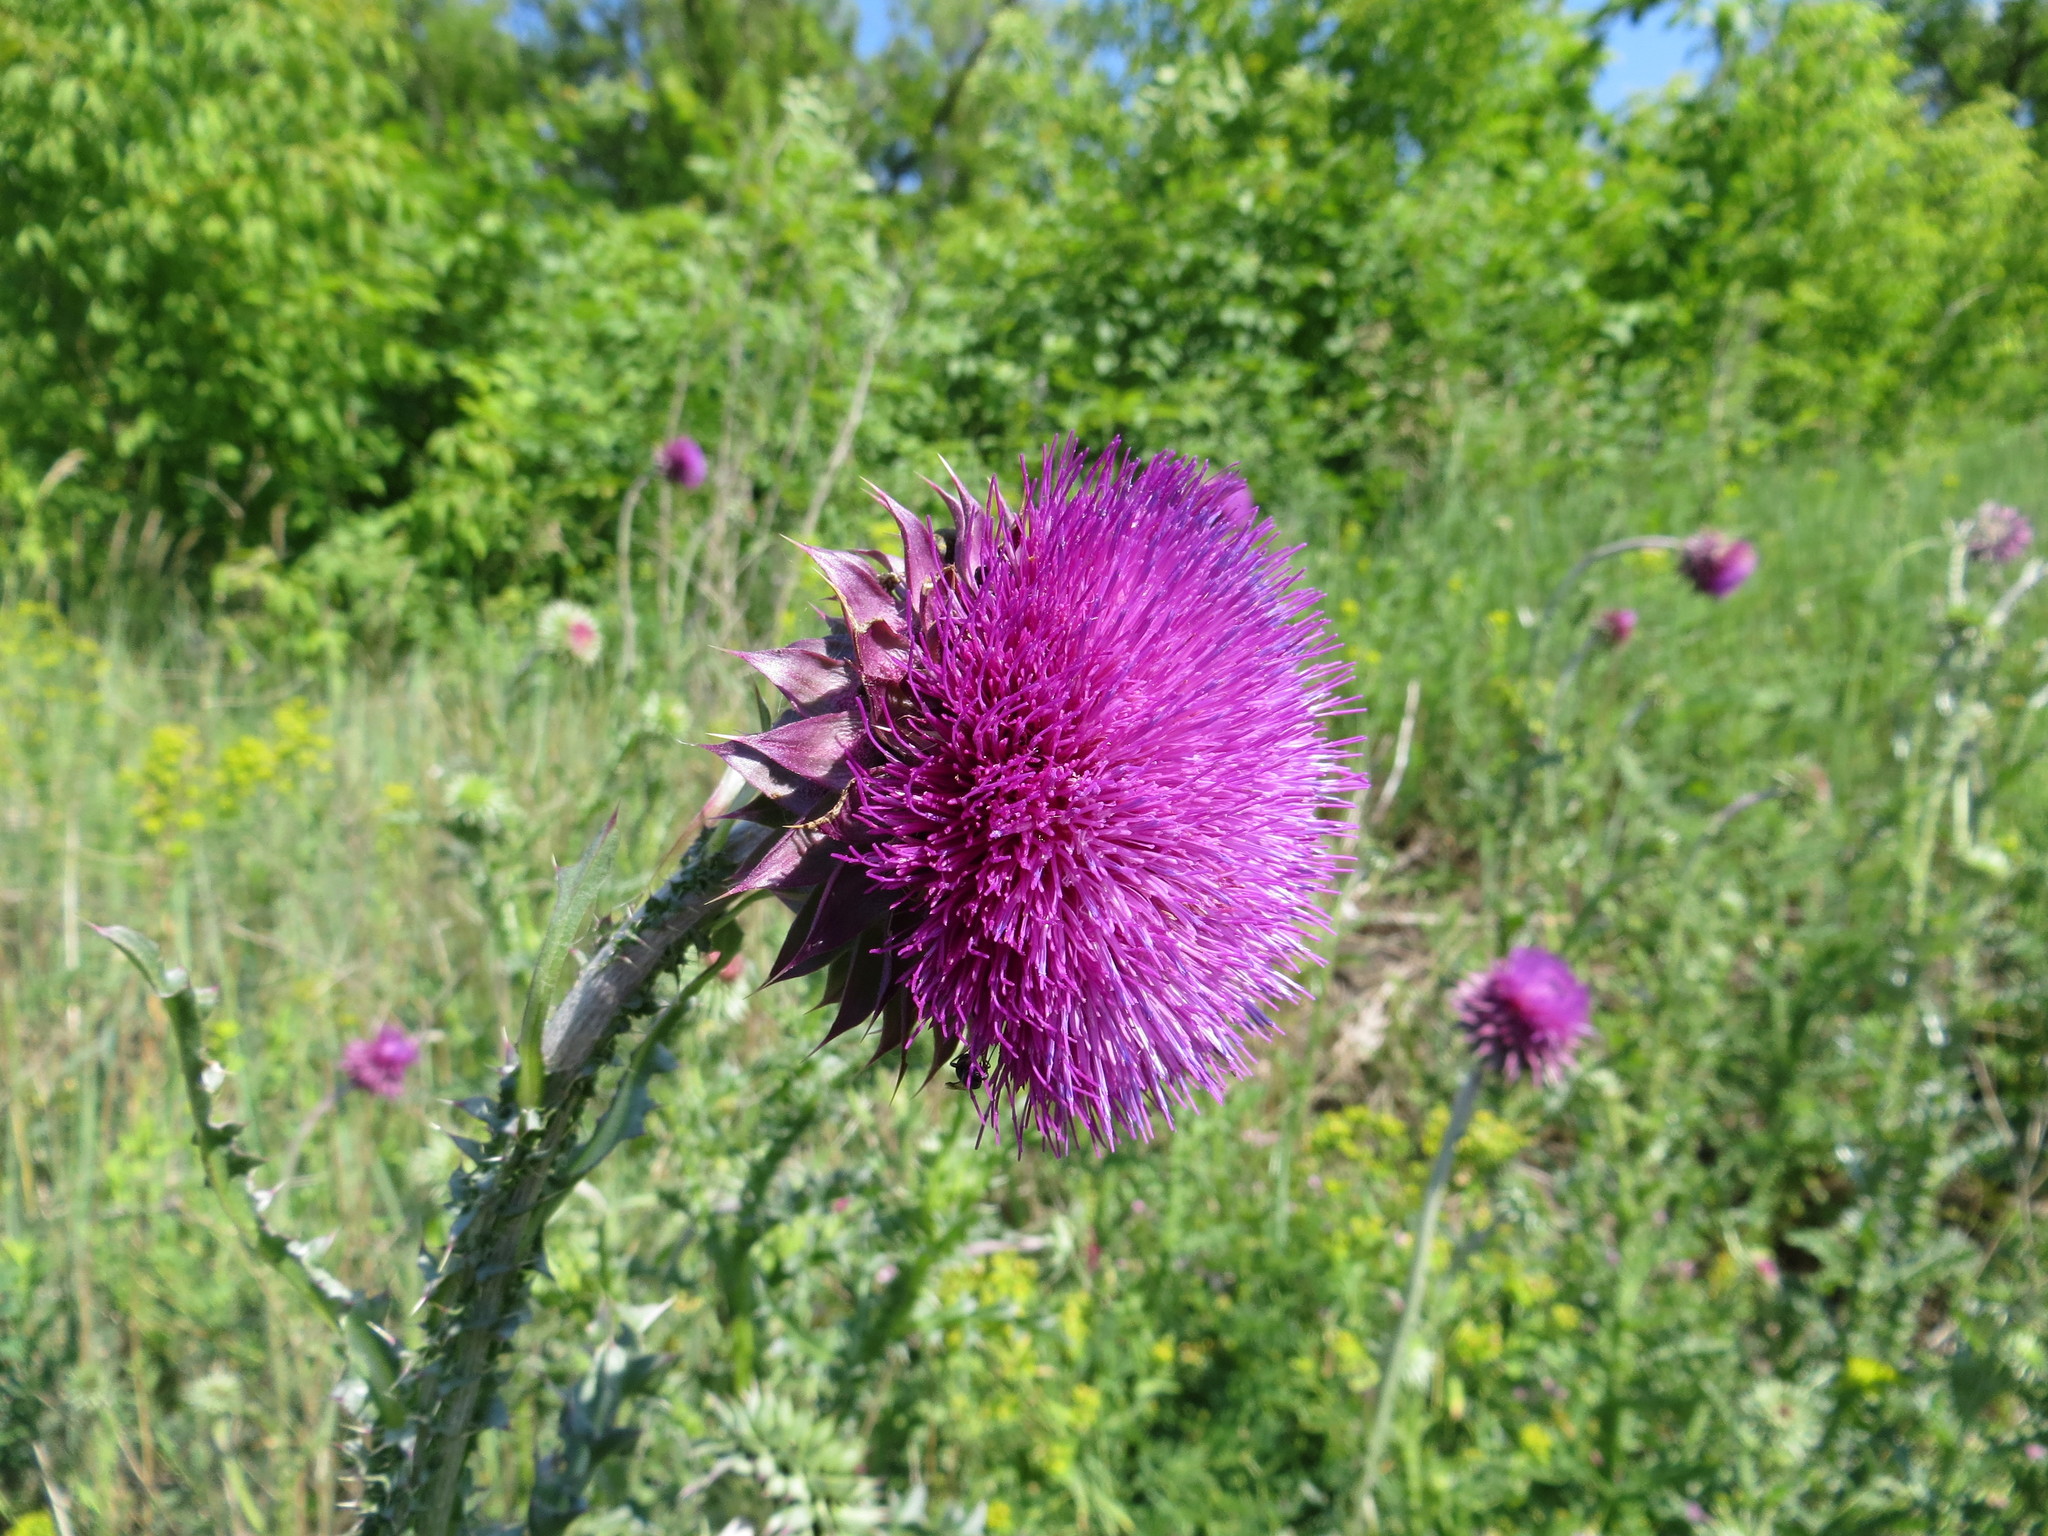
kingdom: Plantae
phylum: Tracheophyta
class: Magnoliopsida
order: Asterales
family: Asteraceae
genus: Carduus
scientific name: Carduus nutans
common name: Musk thistle
